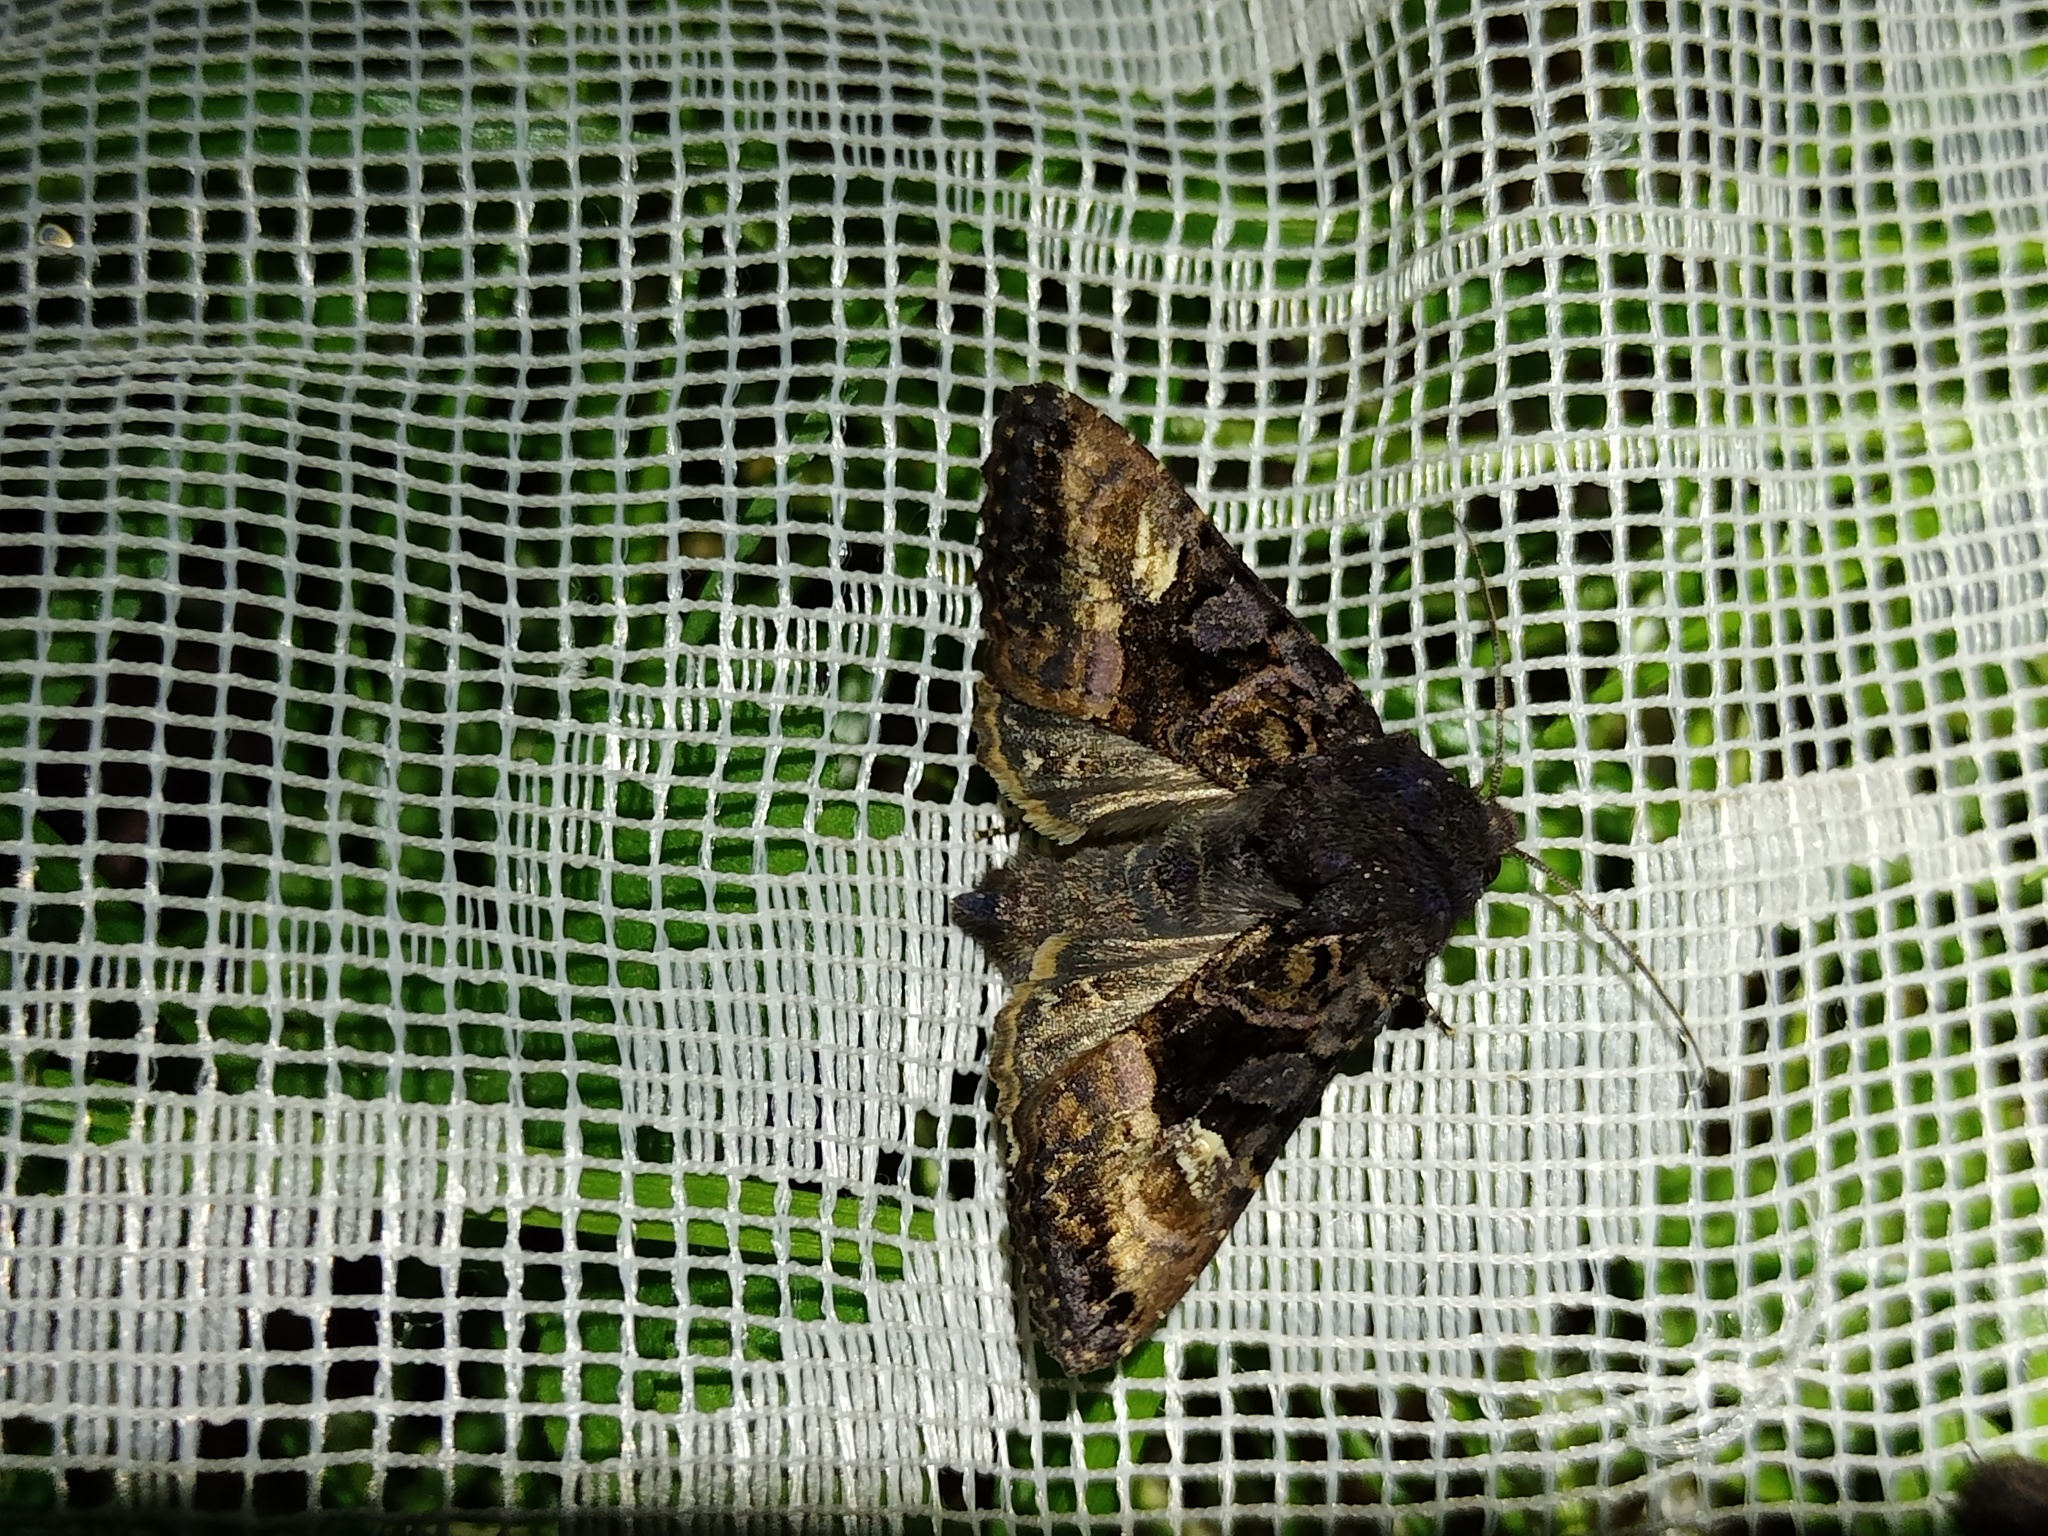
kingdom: Animalia
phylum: Arthropoda
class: Insecta
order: Lepidoptera
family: Noctuidae
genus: Euplexia
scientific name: Euplexia lucipara
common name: Small angle shades
